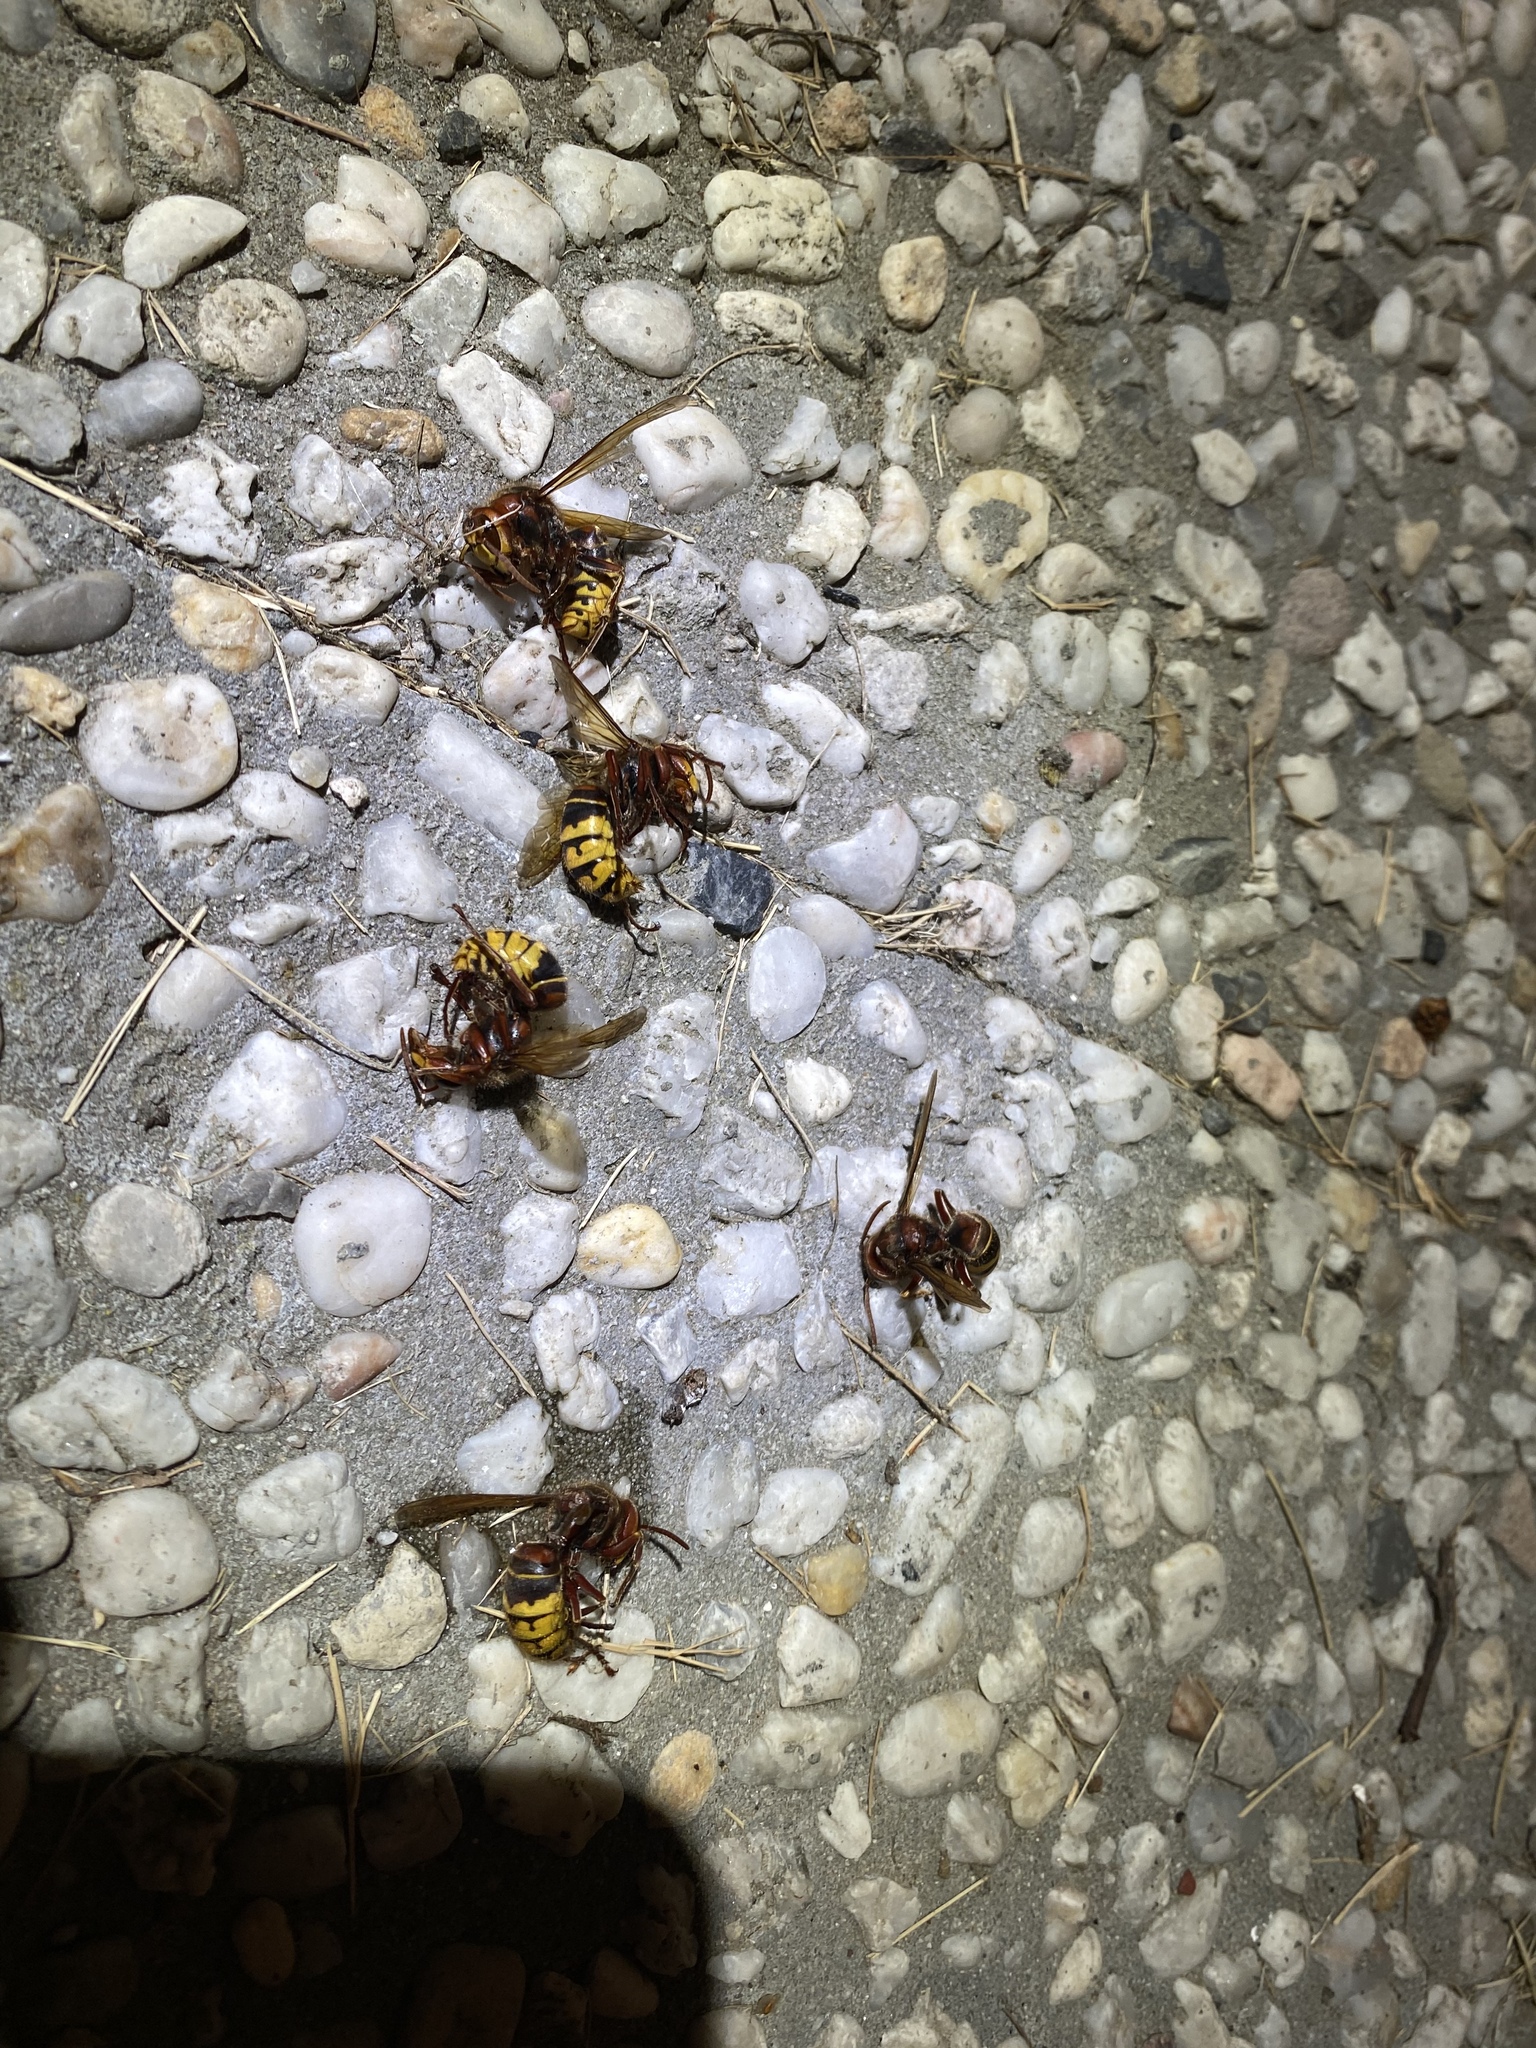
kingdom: Animalia
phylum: Arthropoda
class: Insecta
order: Hymenoptera
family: Vespidae
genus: Vespa
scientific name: Vespa crabro
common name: Hornet
